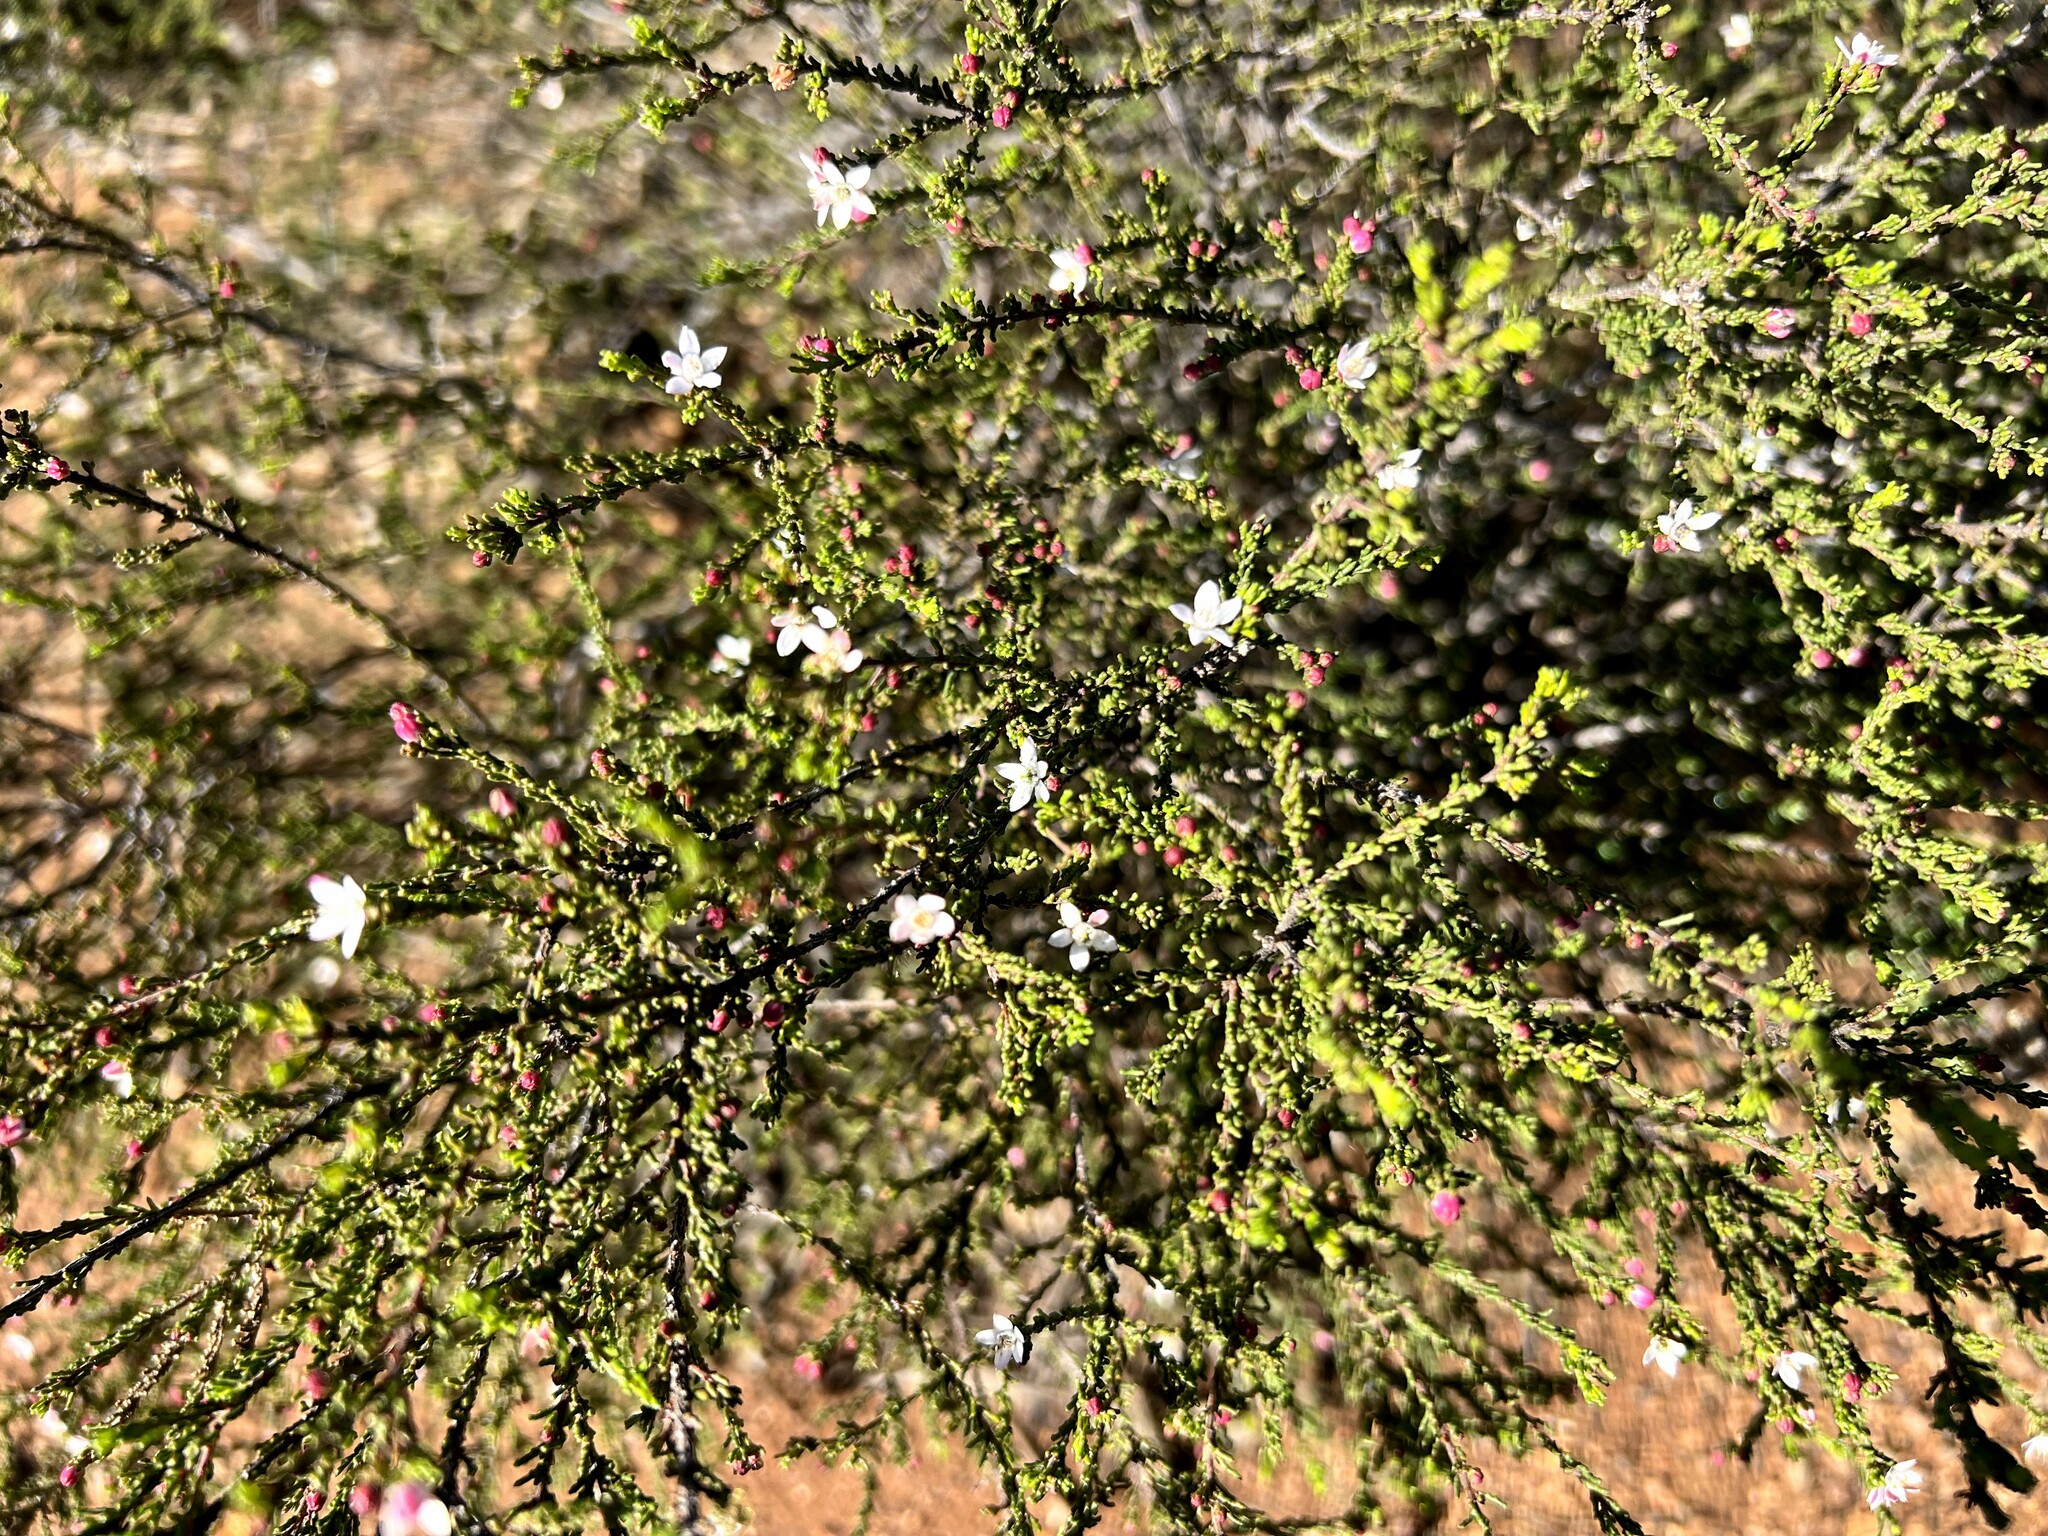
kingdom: Plantae
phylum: Tracheophyta
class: Magnoliopsida
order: Sapindales
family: Rutaceae
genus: Philotheca
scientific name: Philotheca angustifolia
